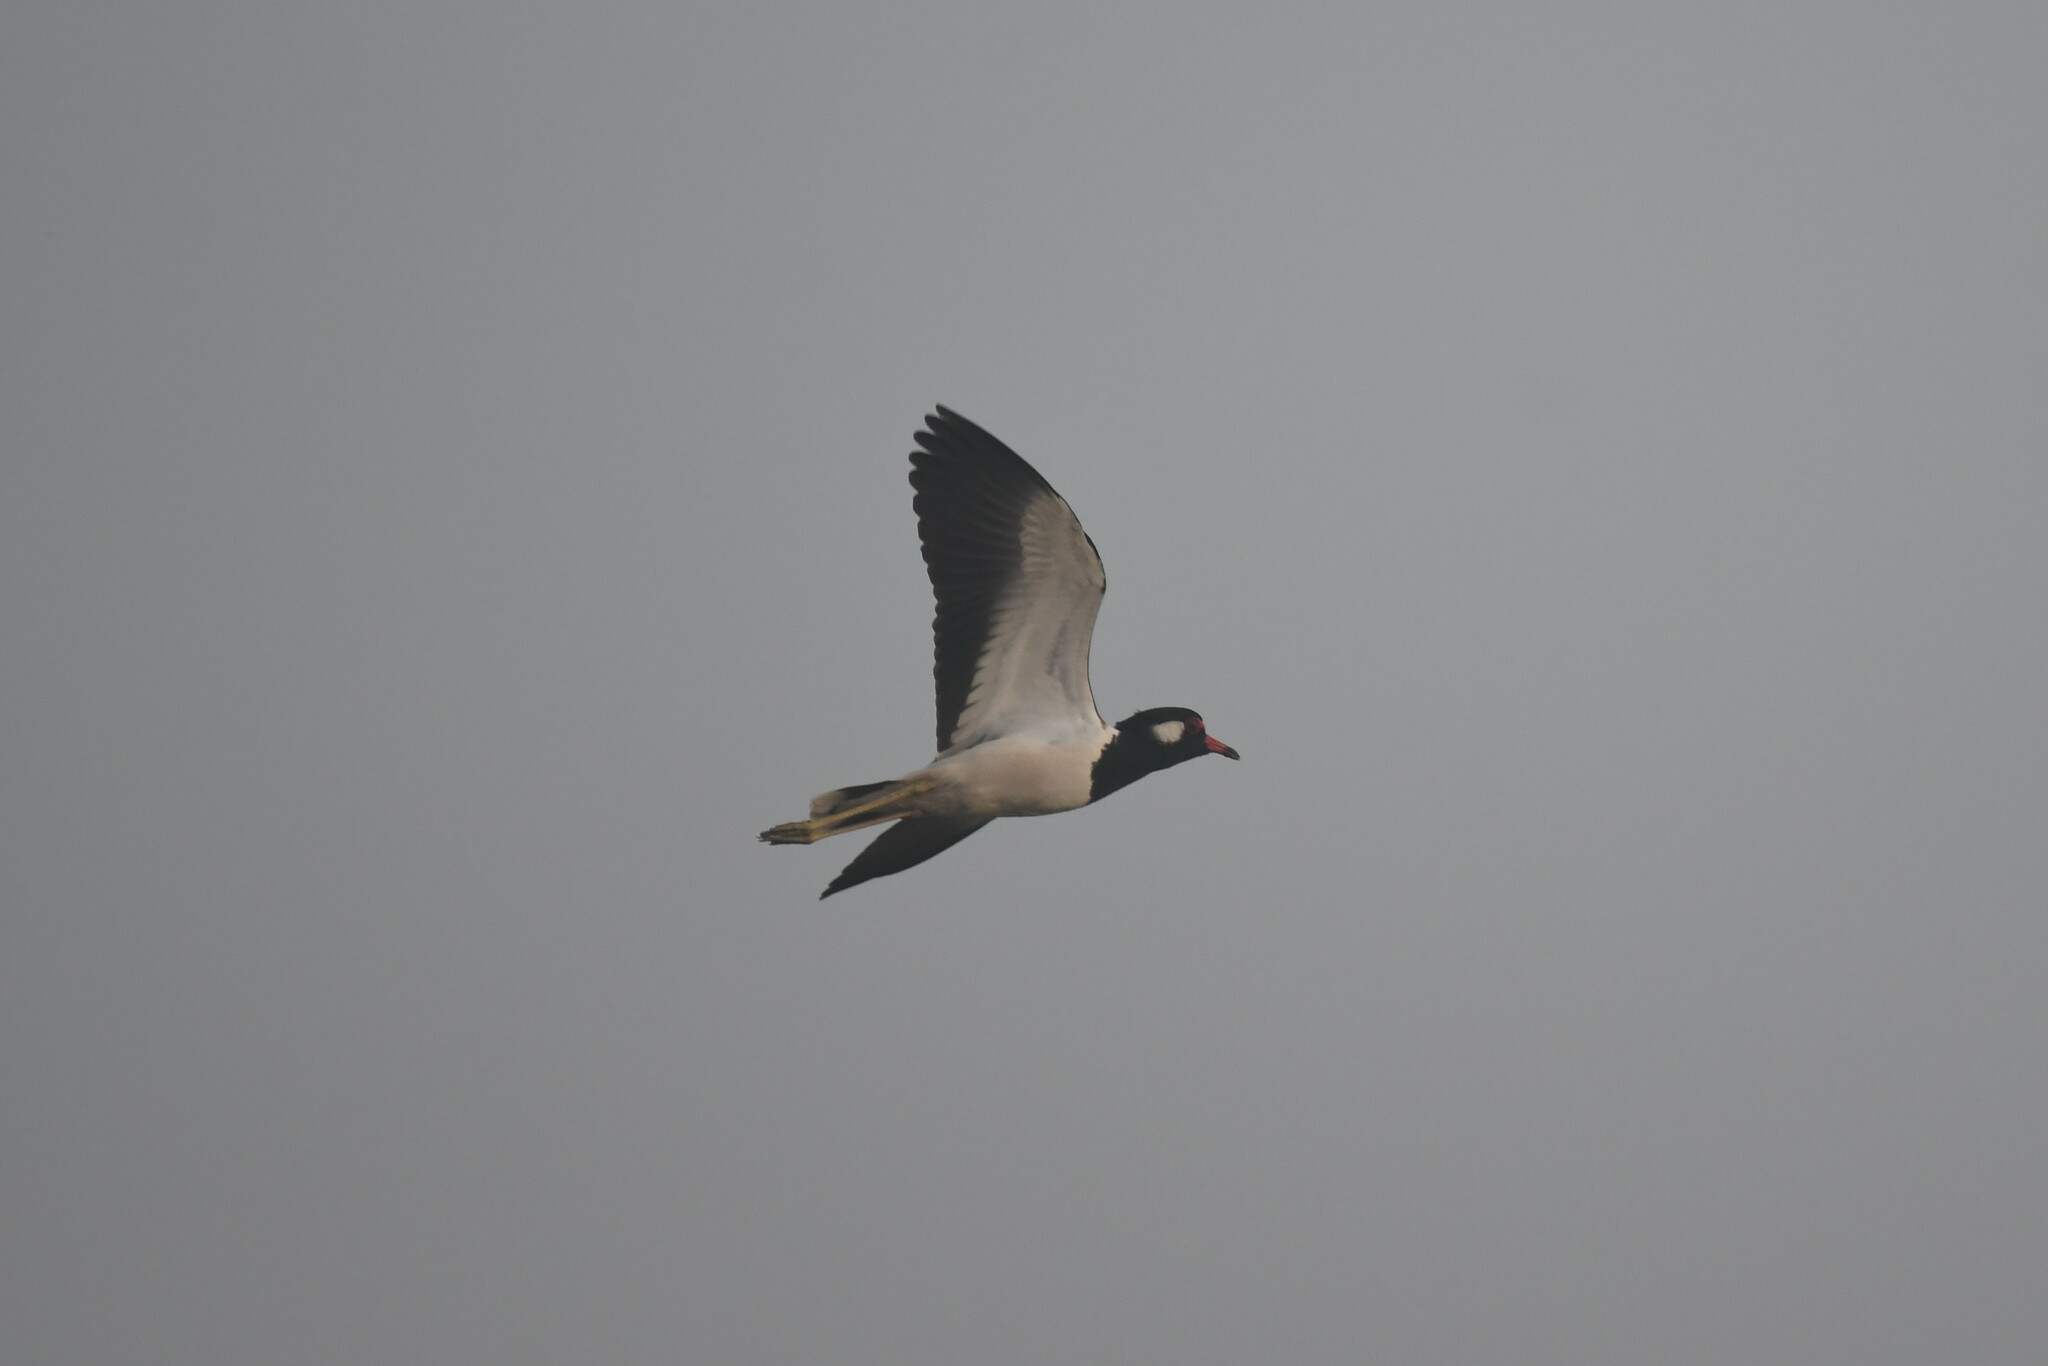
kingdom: Animalia
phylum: Chordata
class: Aves
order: Charadriiformes
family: Charadriidae
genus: Vanellus
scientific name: Vanellus indicus
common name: Red-wattled lapwing
